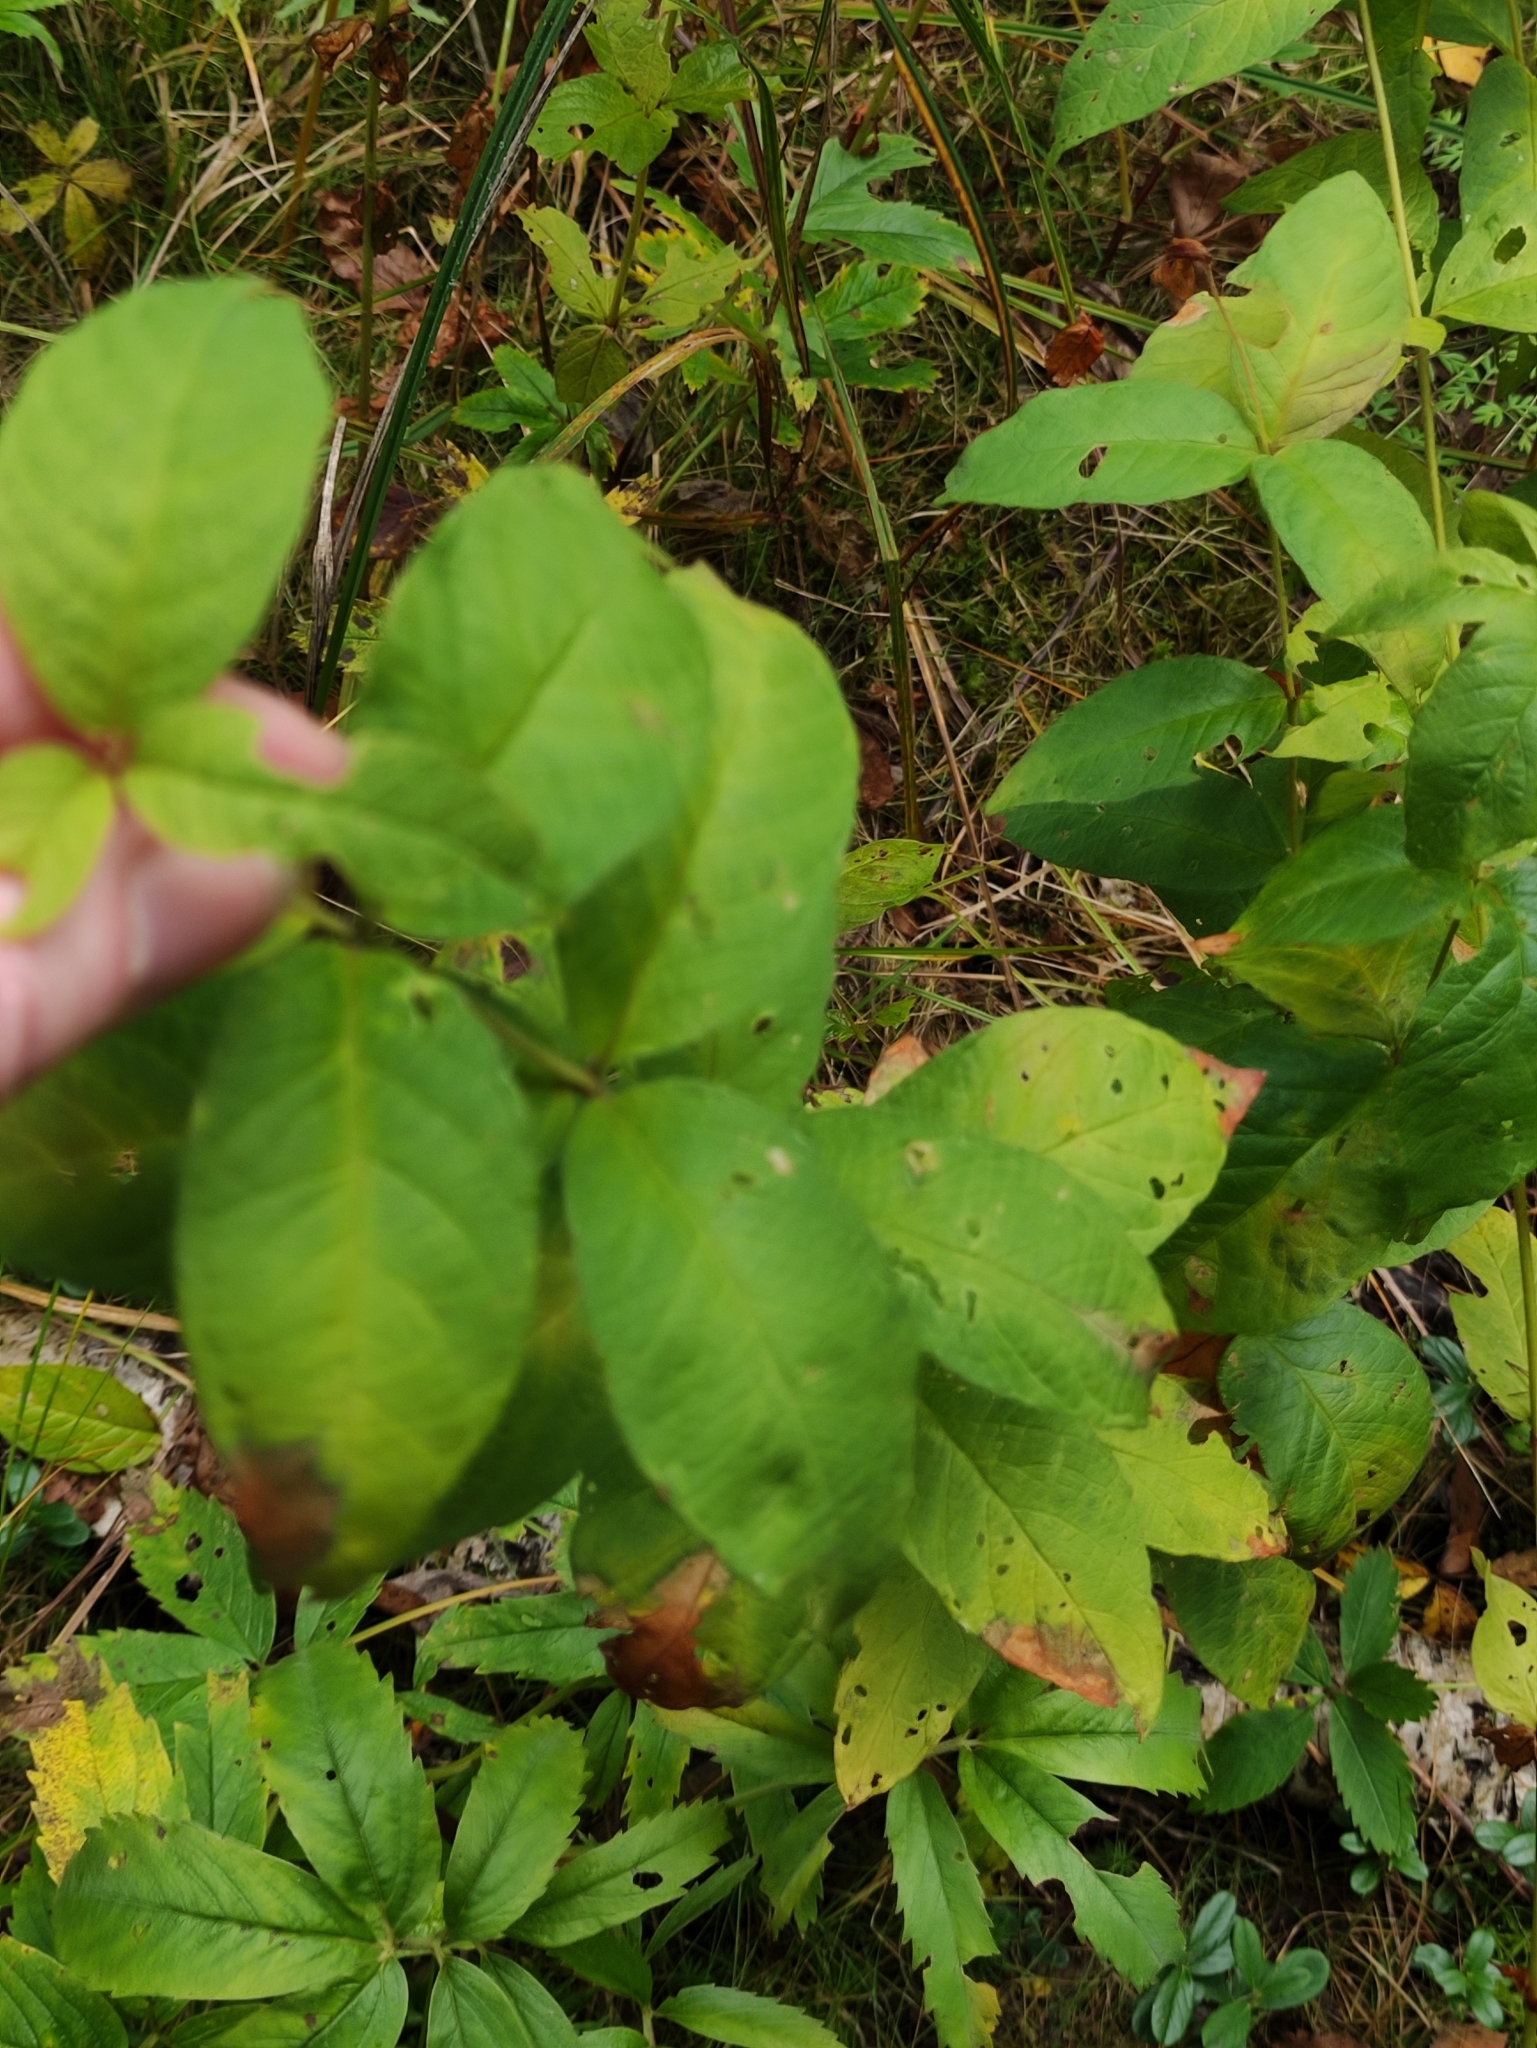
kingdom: Plantae
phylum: Tracheophyta
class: Magnoliopsida
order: Ericales
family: Primulaceae
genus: Lysimachia
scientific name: Lysimachia vulgaris
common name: Yellow loosestrife
